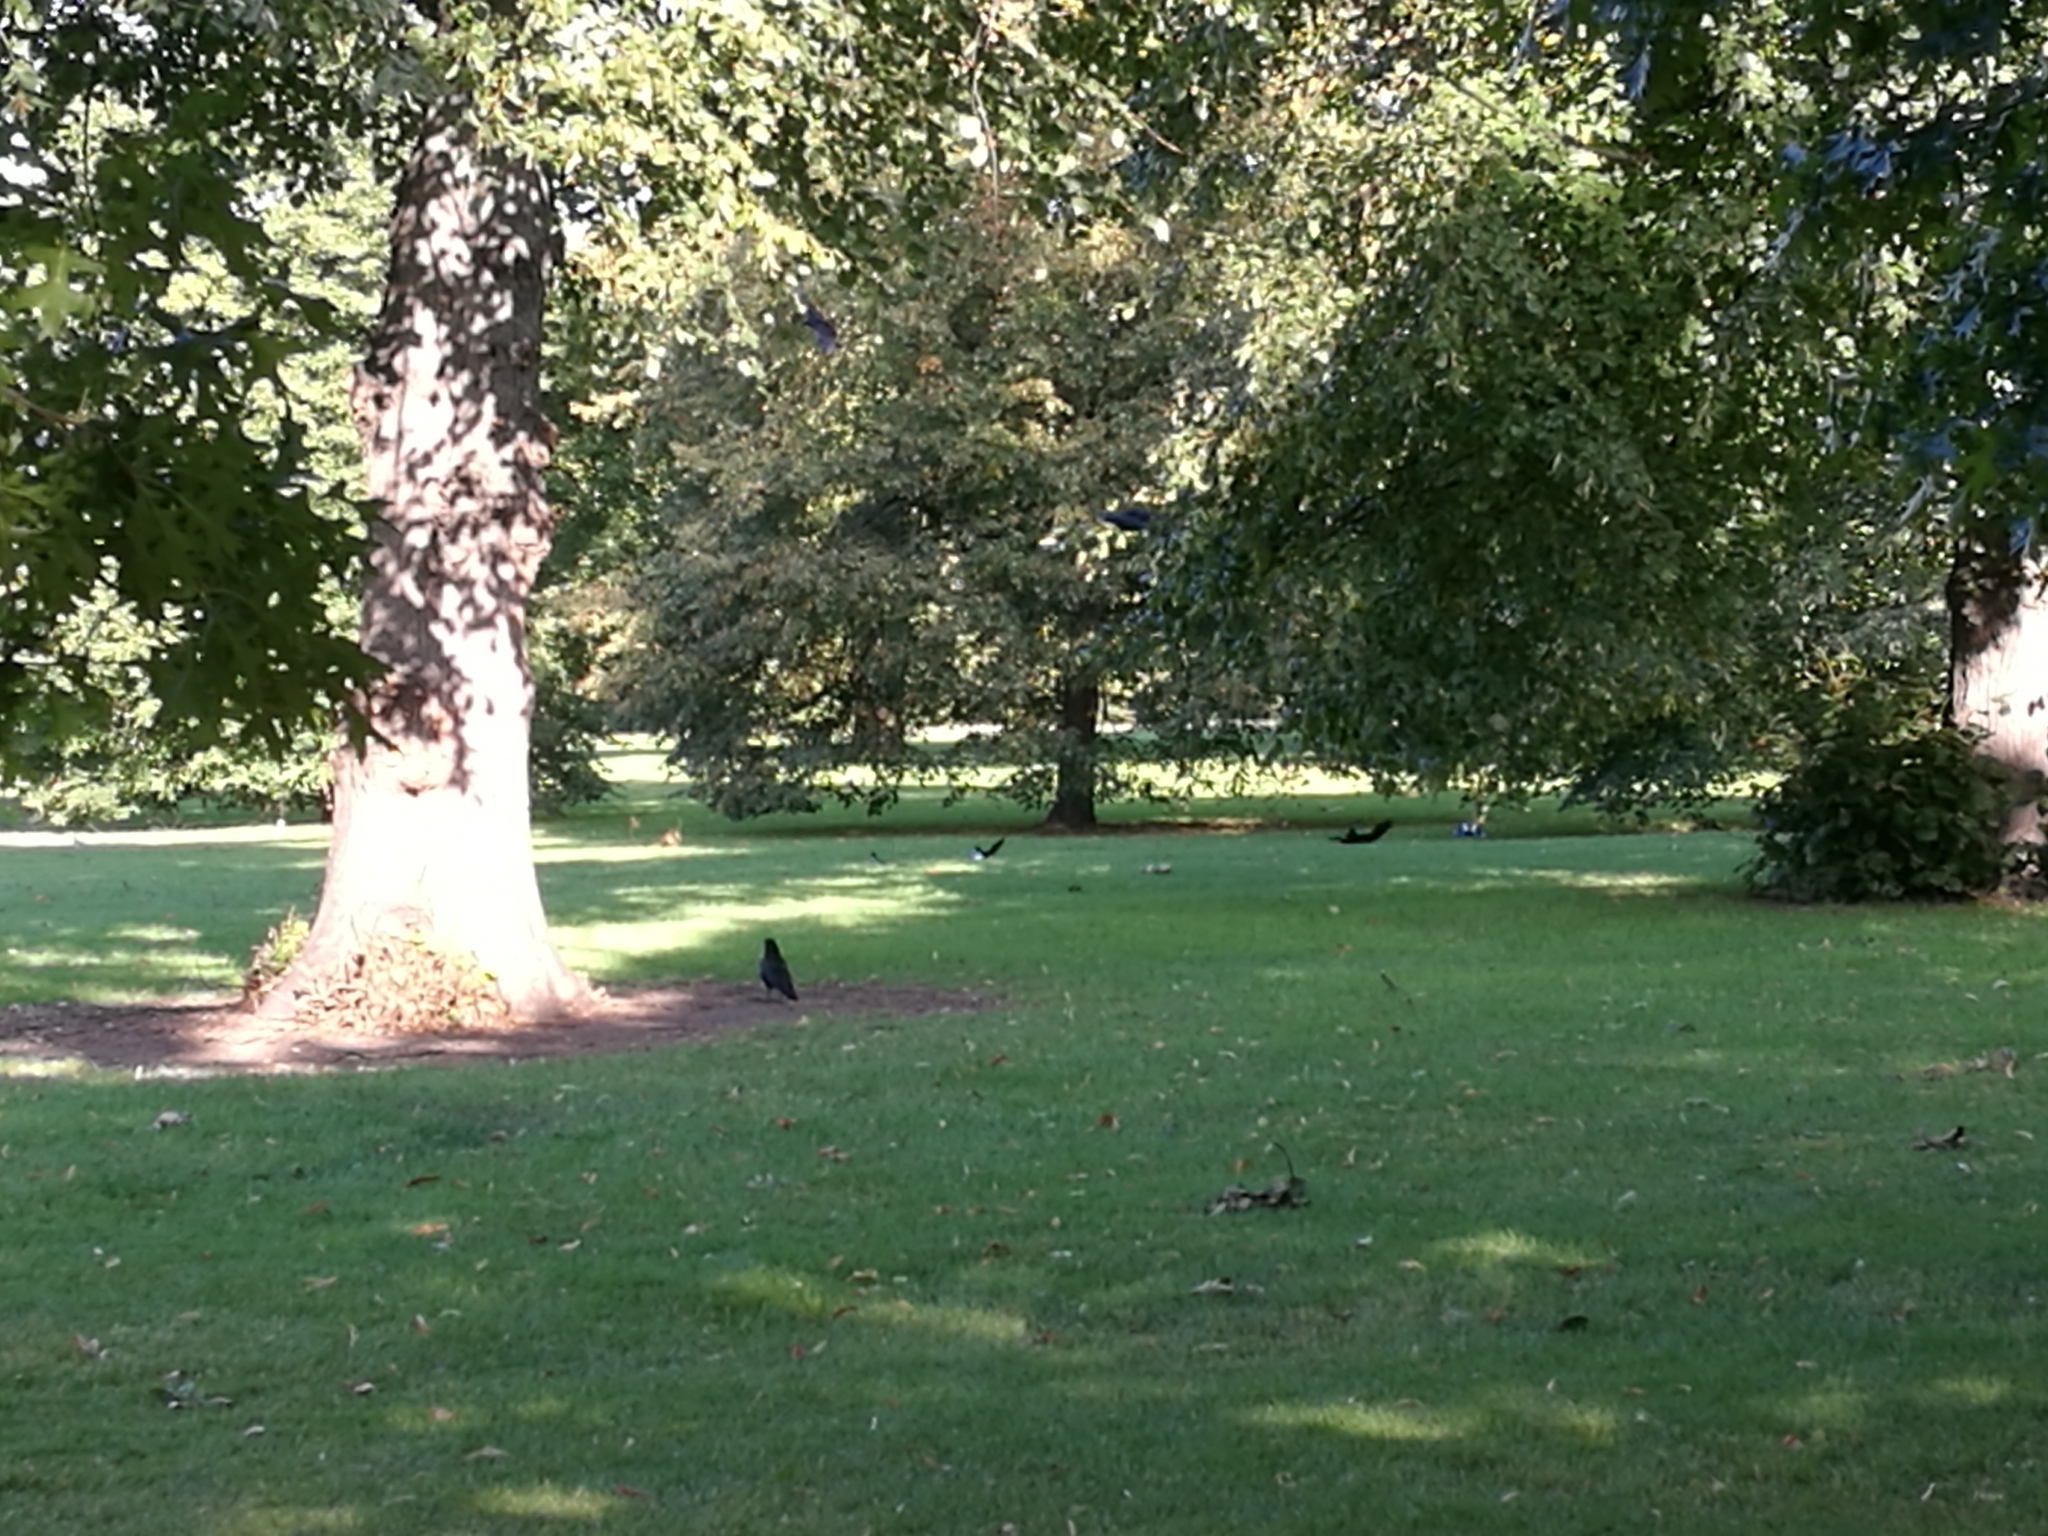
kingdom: Animalia
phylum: Chordata
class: Aves
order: Passeriformes
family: Corvidae
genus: Pica
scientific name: Pica pica
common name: Eurasian magpie
